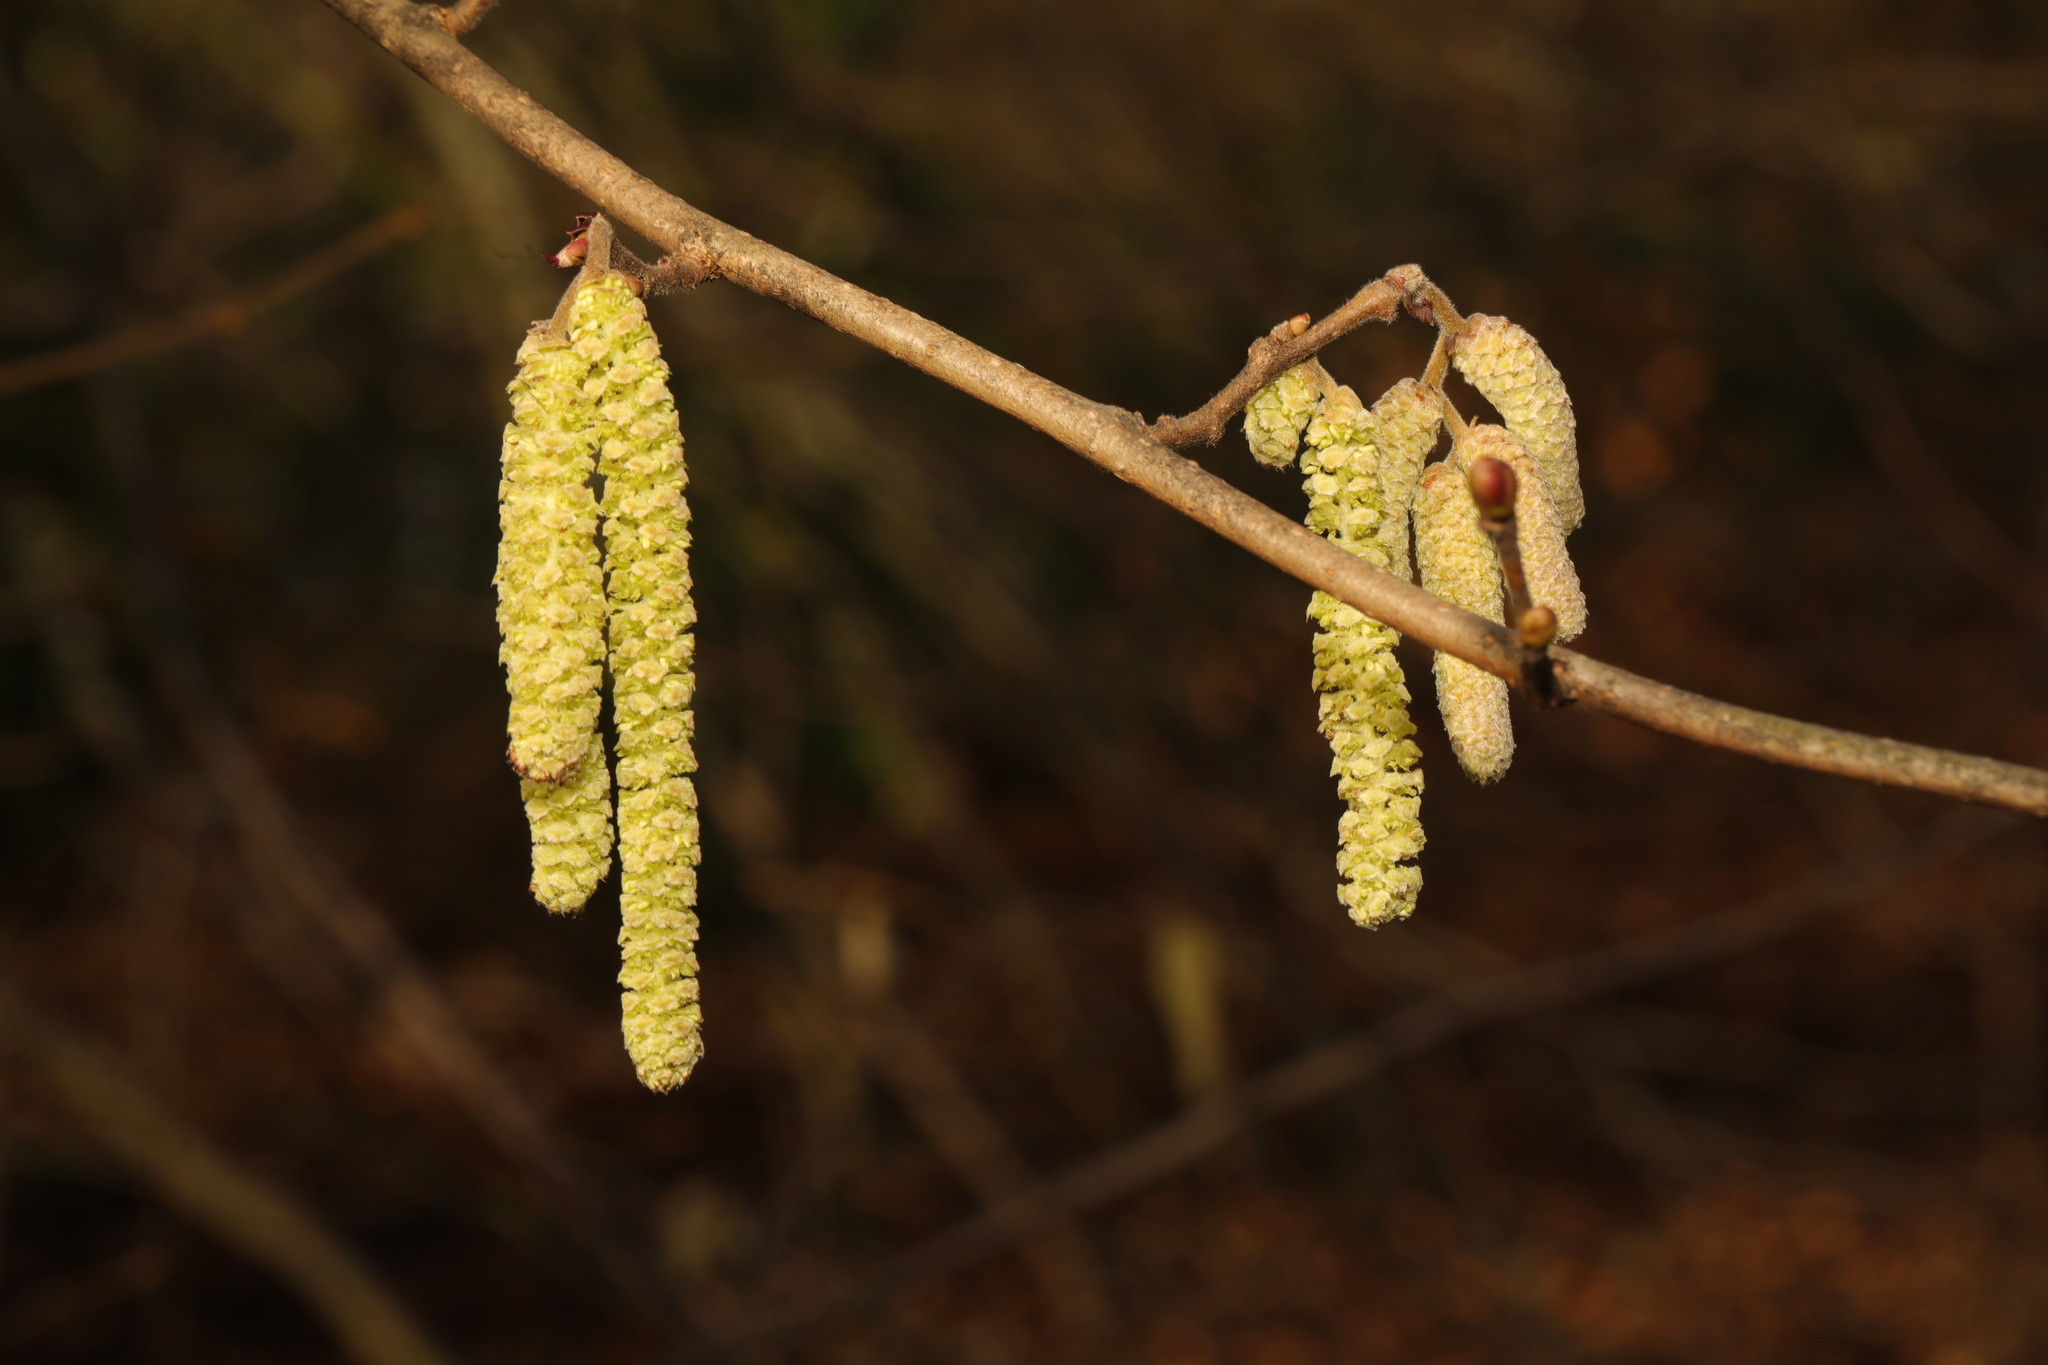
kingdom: Plantae
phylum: Tracheophyta
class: Magnoliopsida
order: Fagales
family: Betulaceae
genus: Corylus
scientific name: Corylus avellana
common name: European hazel
